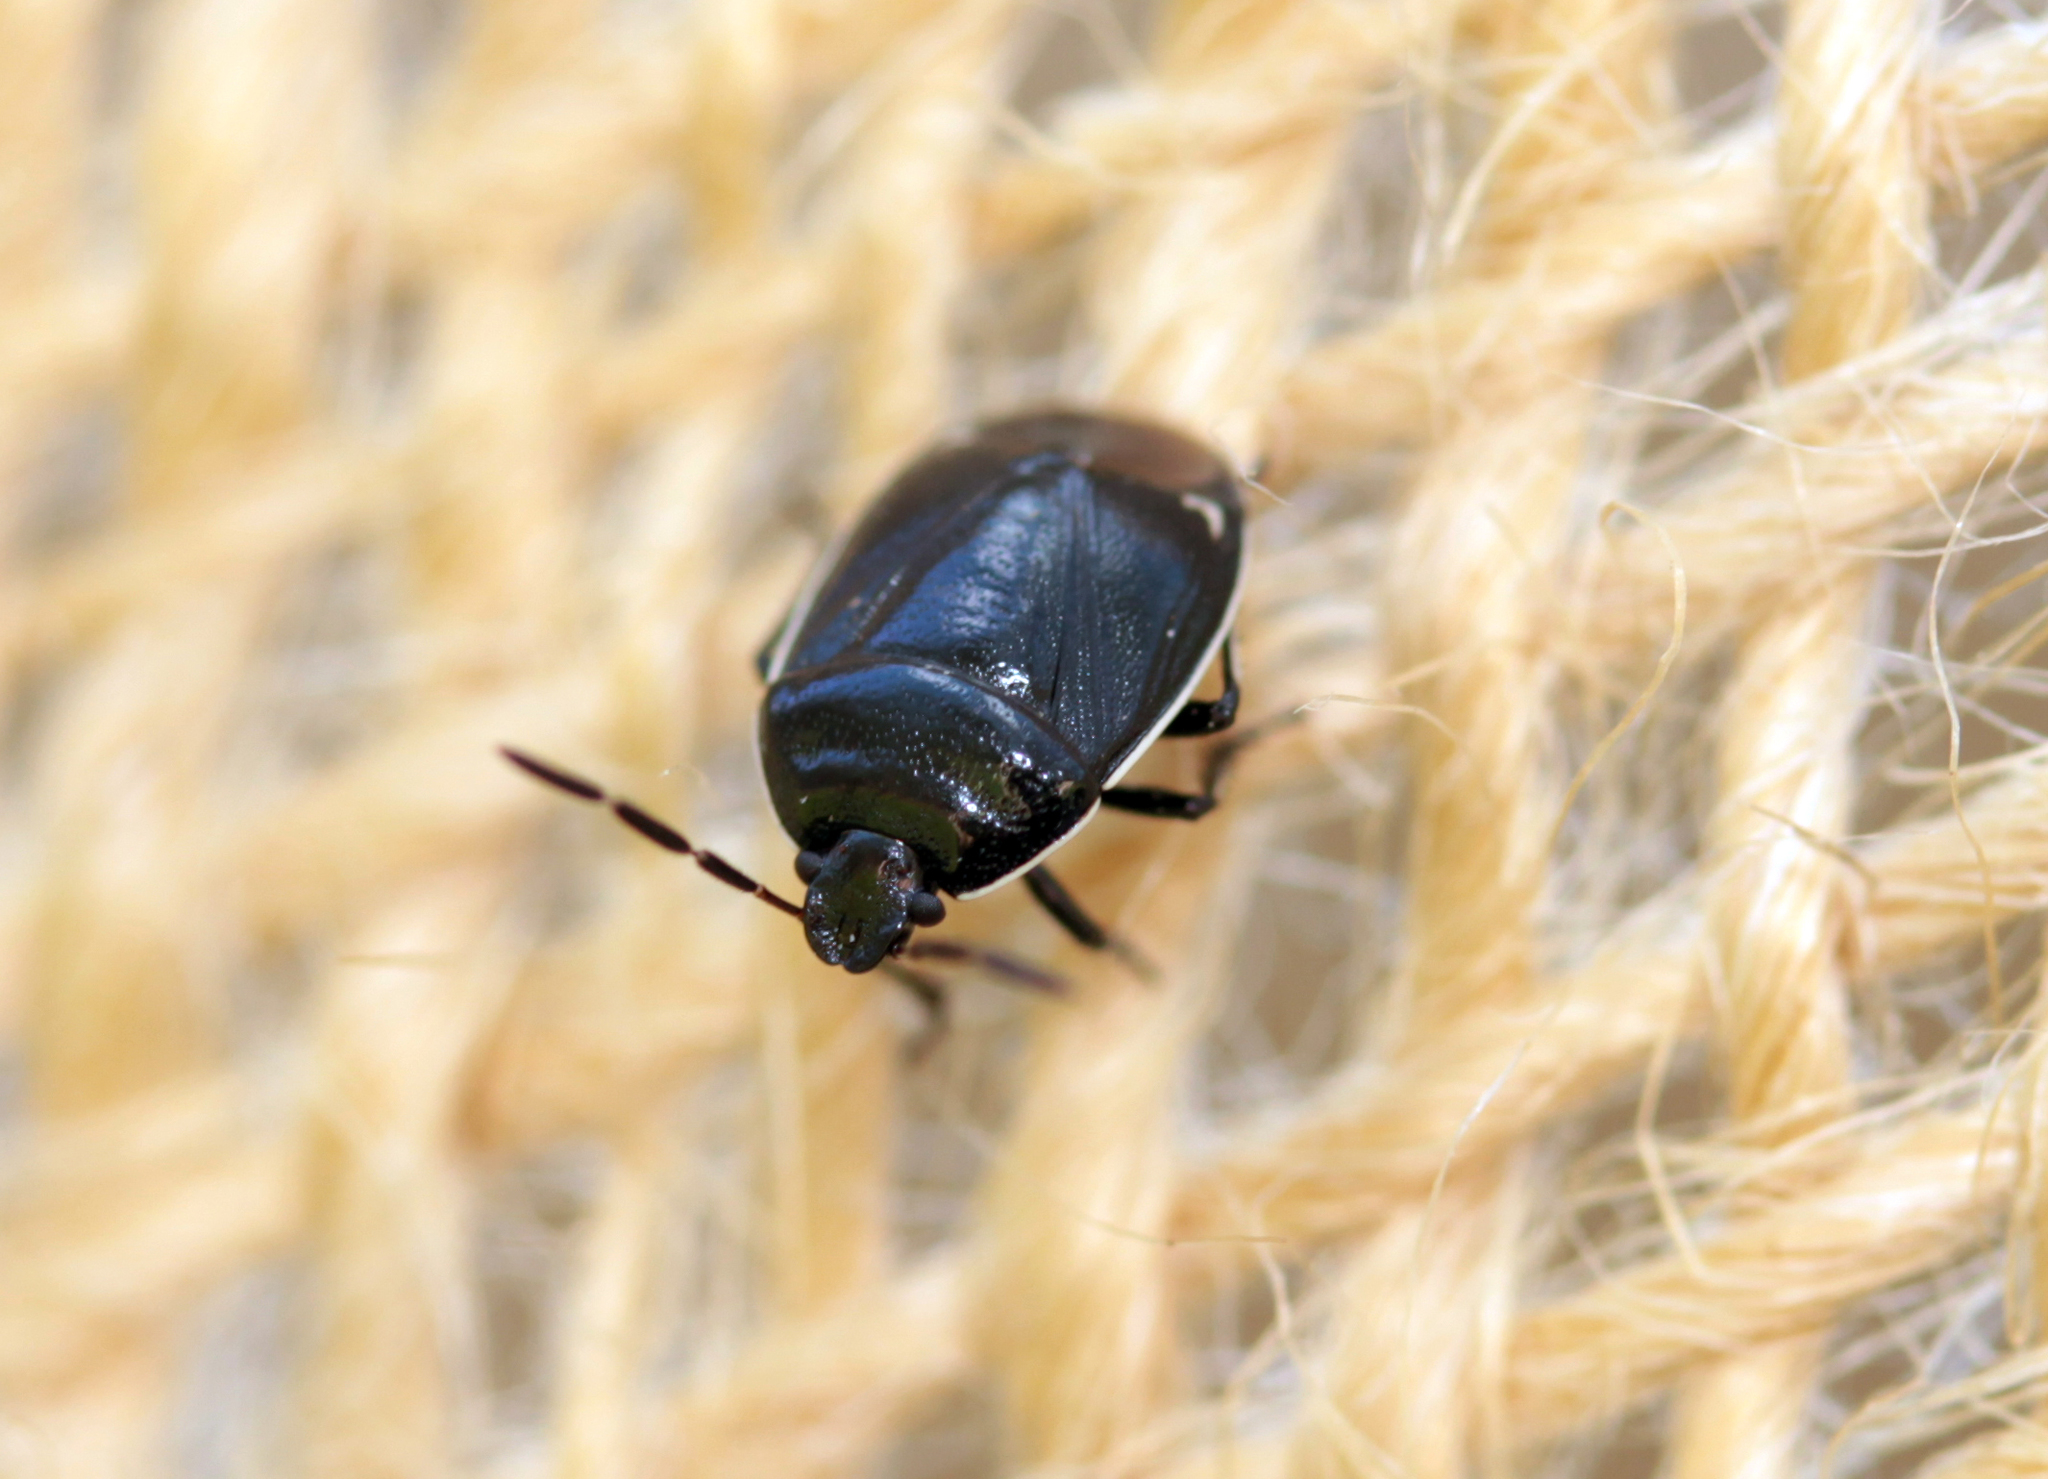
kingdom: Animalia
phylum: Arthropoda
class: Insecta
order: Hemiptera
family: Cydnidae
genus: Sehirus
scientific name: Sehirus cinctus
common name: White-margined burrower bug
